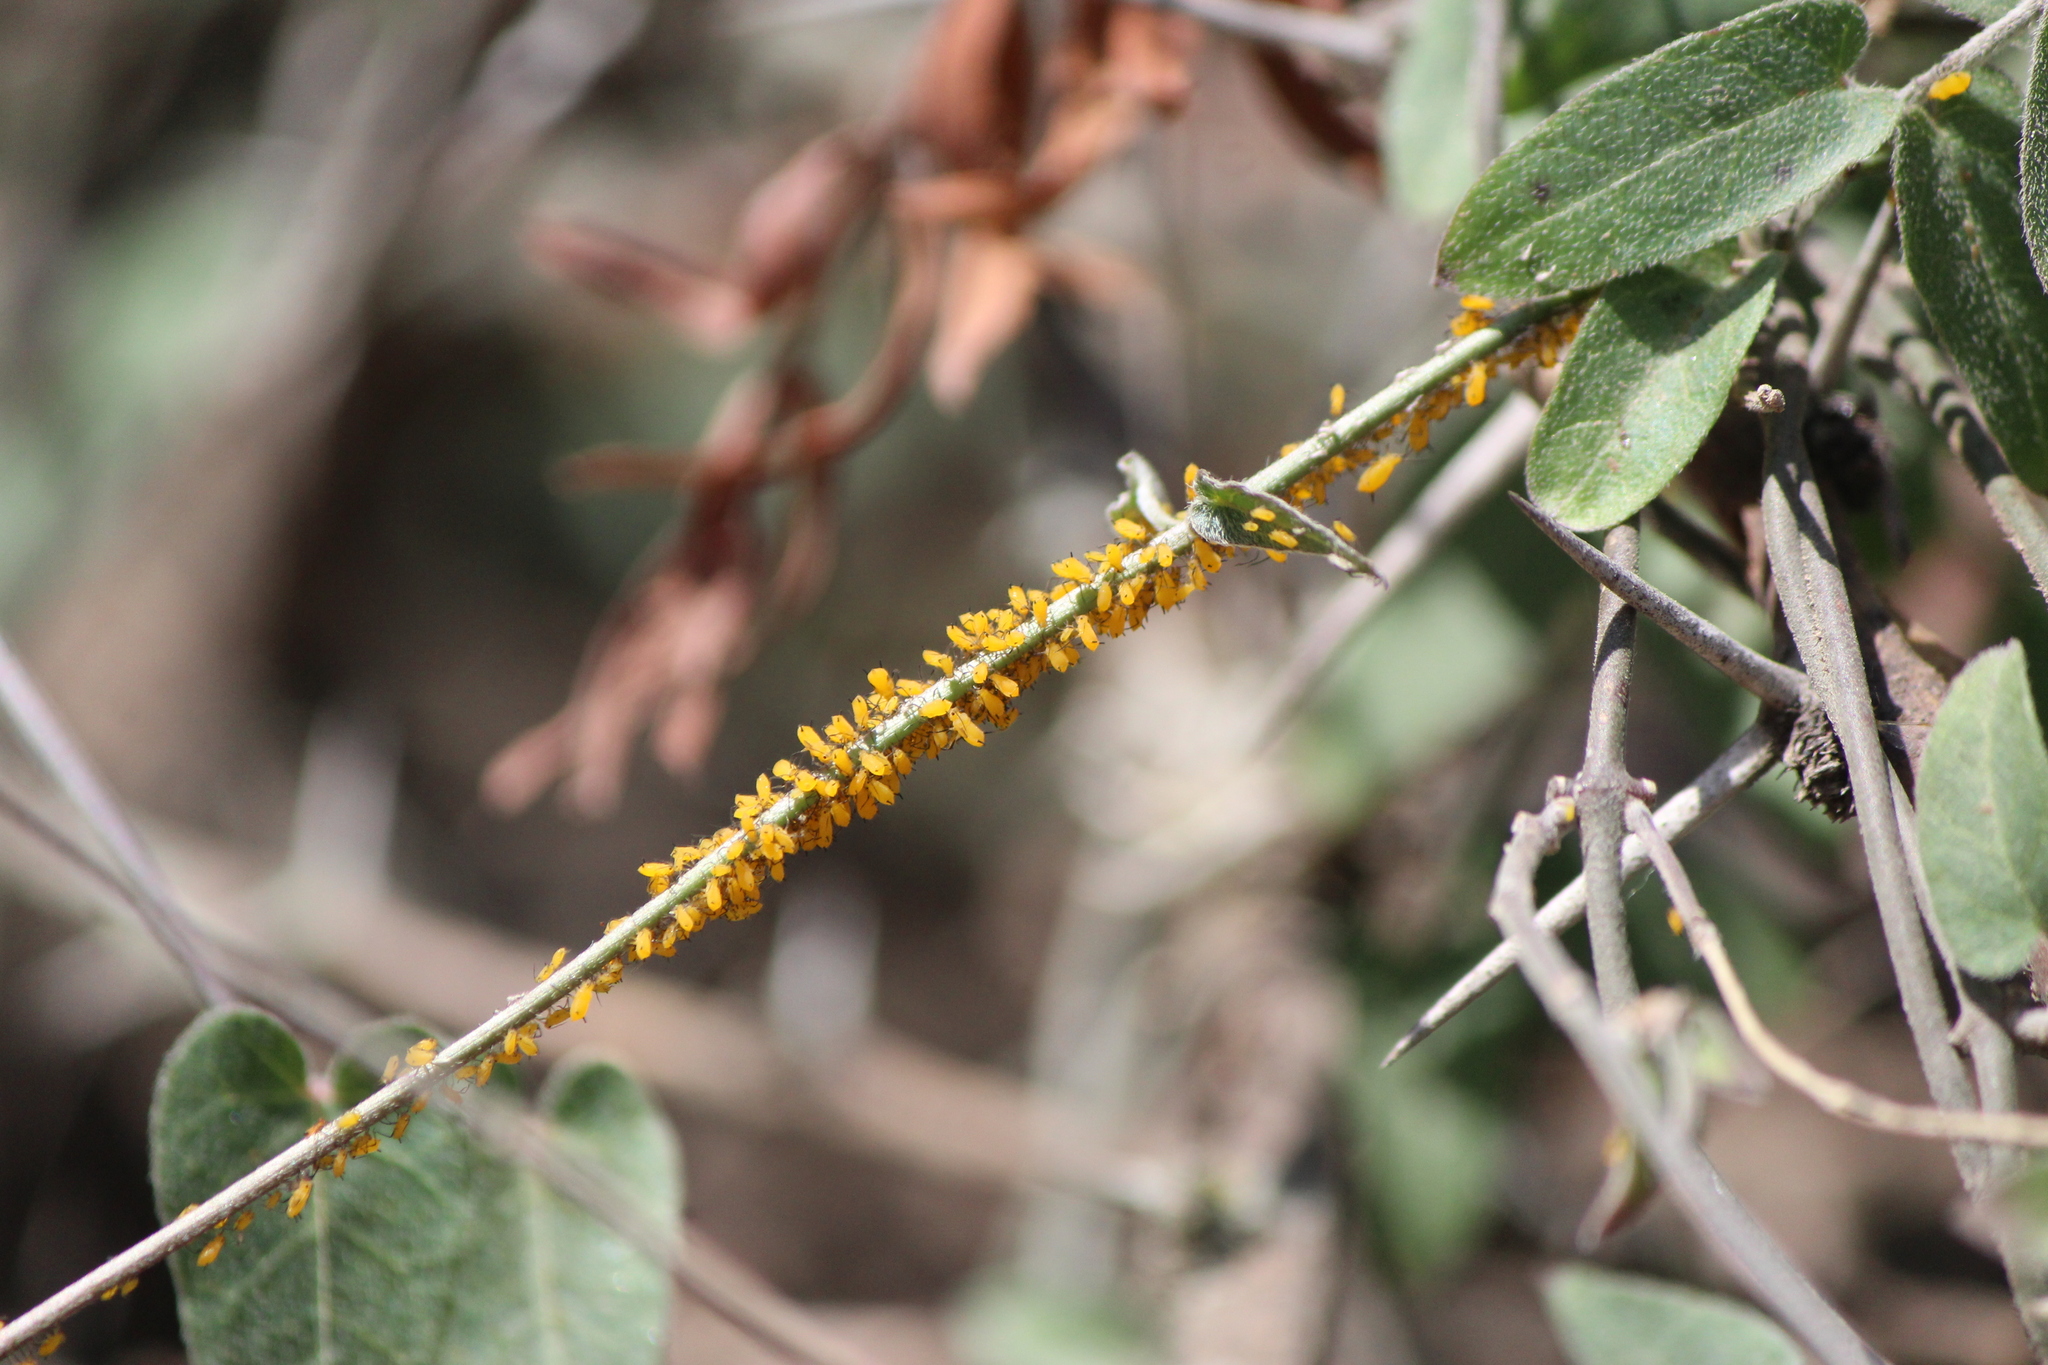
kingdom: Animalia
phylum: Arthropoda
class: Insecta
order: Hemiptera
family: Aphididae
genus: Aphis
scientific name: Aphis nerii
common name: Oleander aphid
